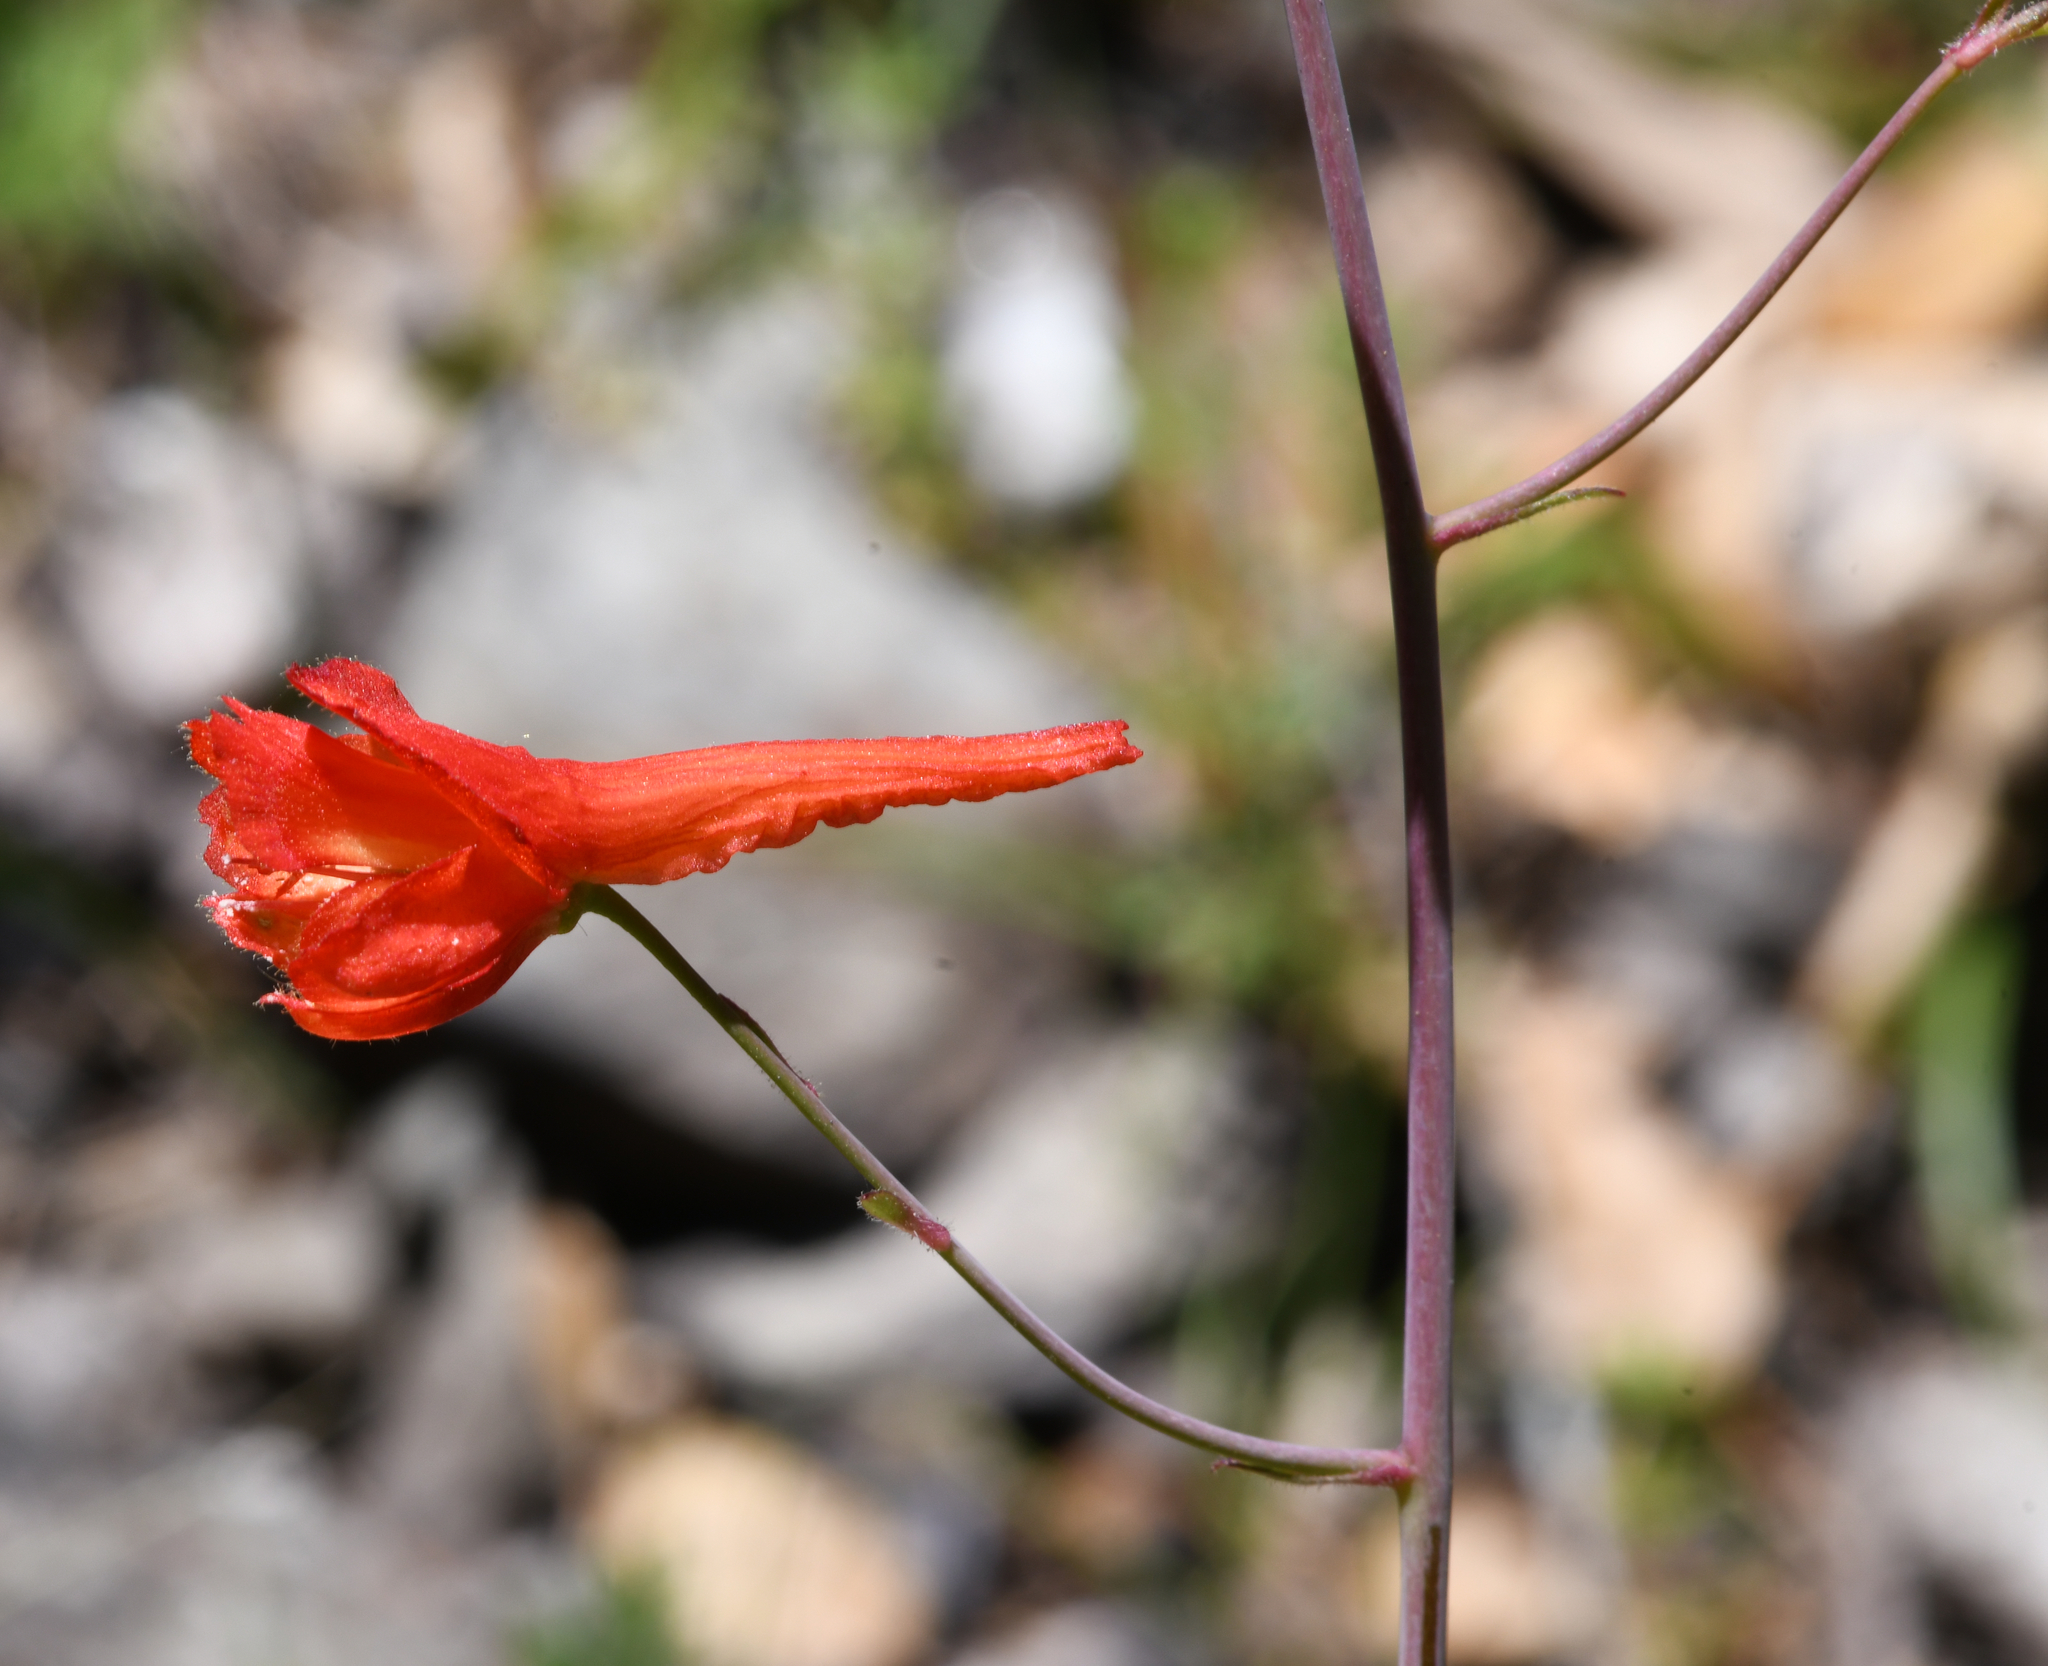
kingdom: Plantae
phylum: Tracheophyta
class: Magnoliopsida
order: Ranunculales
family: Ranunculaceae
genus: Delphinium
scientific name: Delphinium nudicaule
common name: Red larkspur
